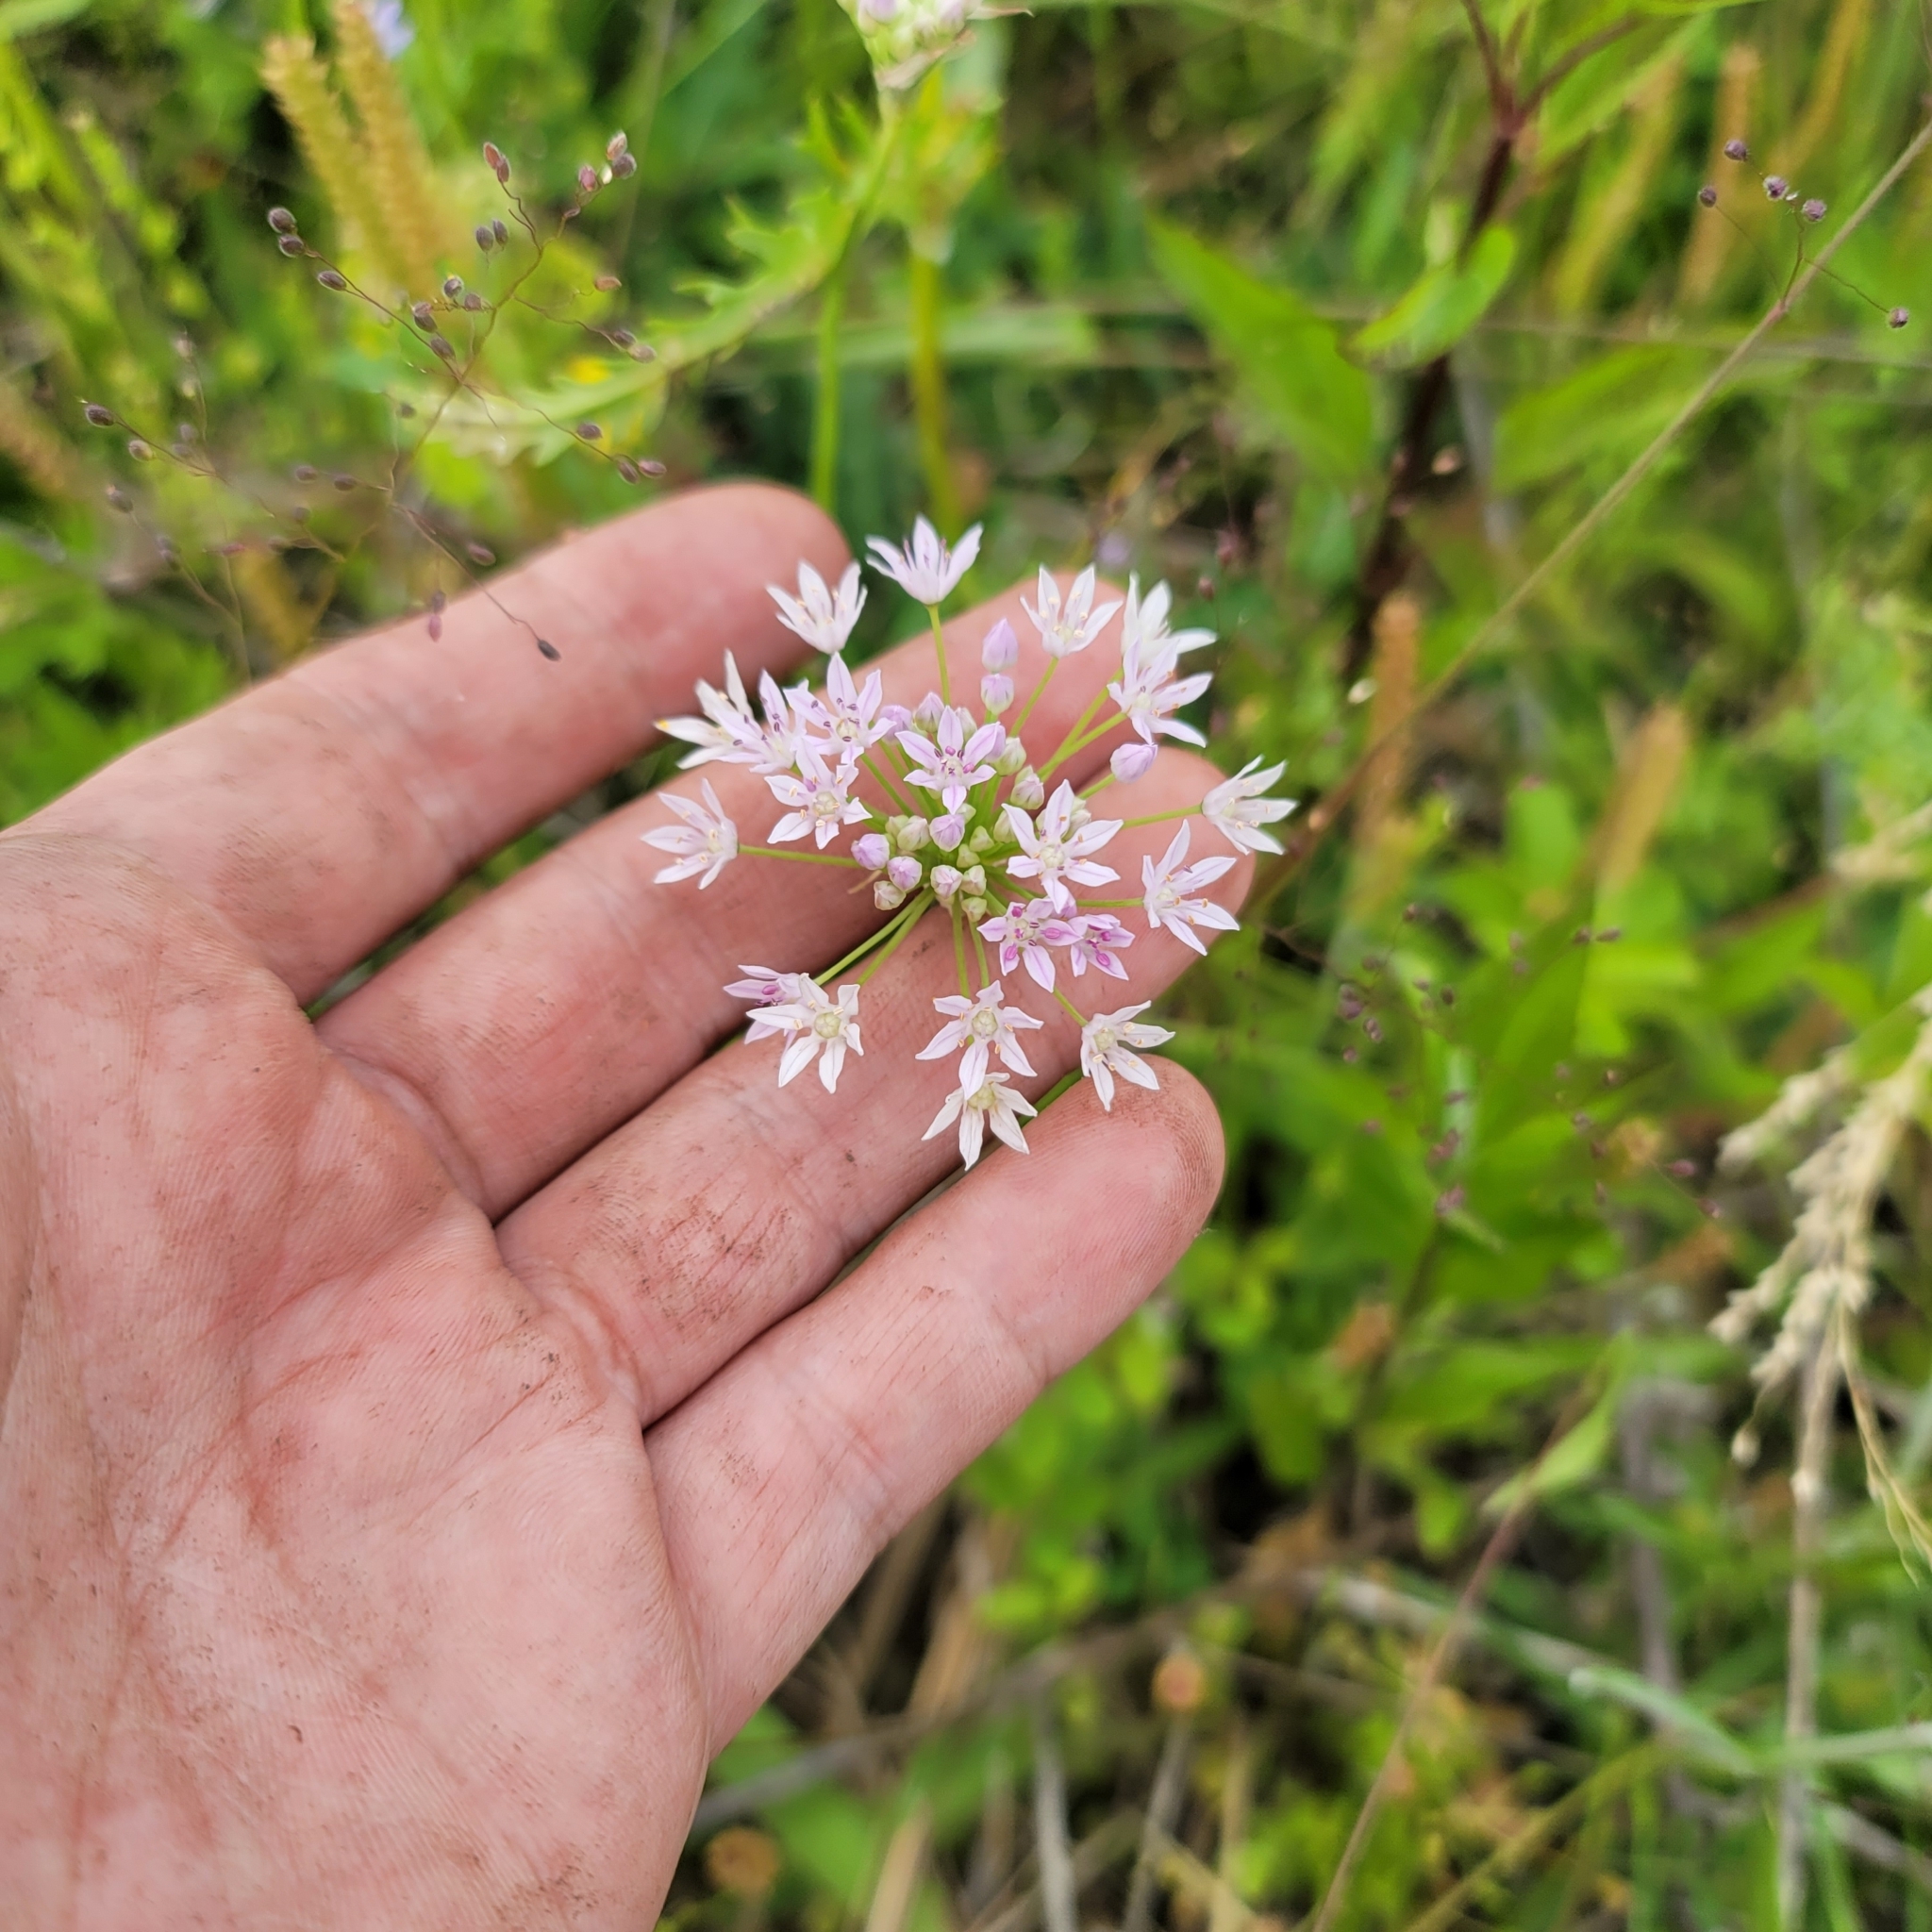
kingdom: Plantae
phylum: Tracheophyta
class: Liliopsida
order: Asparagales
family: Amaryllidaceae
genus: Allium
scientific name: Allium canadense
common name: Meadow garlic
